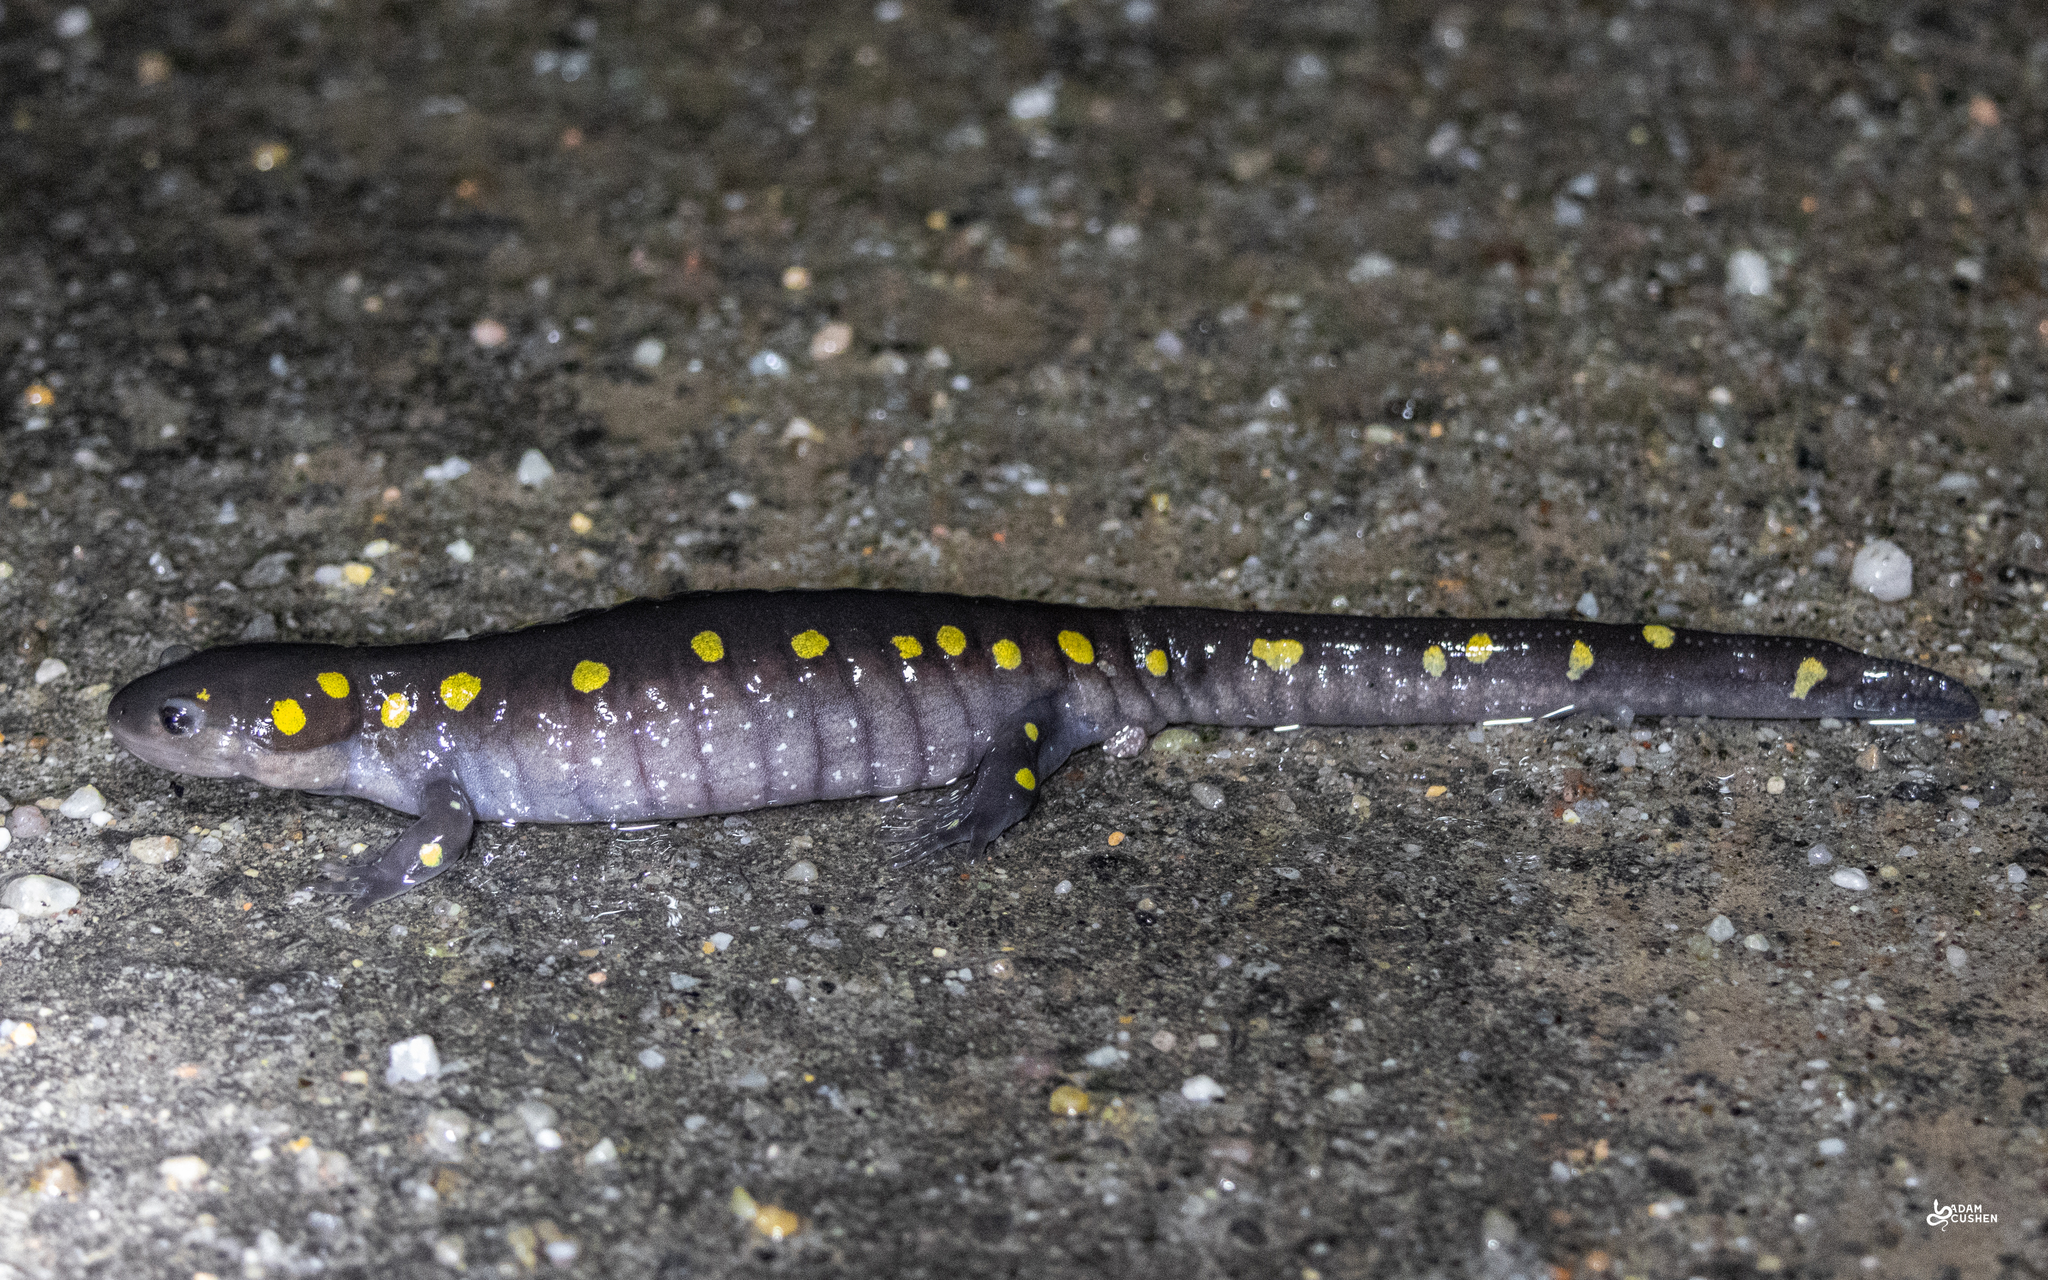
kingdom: Animalia
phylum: Chordata
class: Amphibia
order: Caudata
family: Ambystomatidae
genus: Ambystoma
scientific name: Ambystoma maculatum
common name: Spotted salamander
